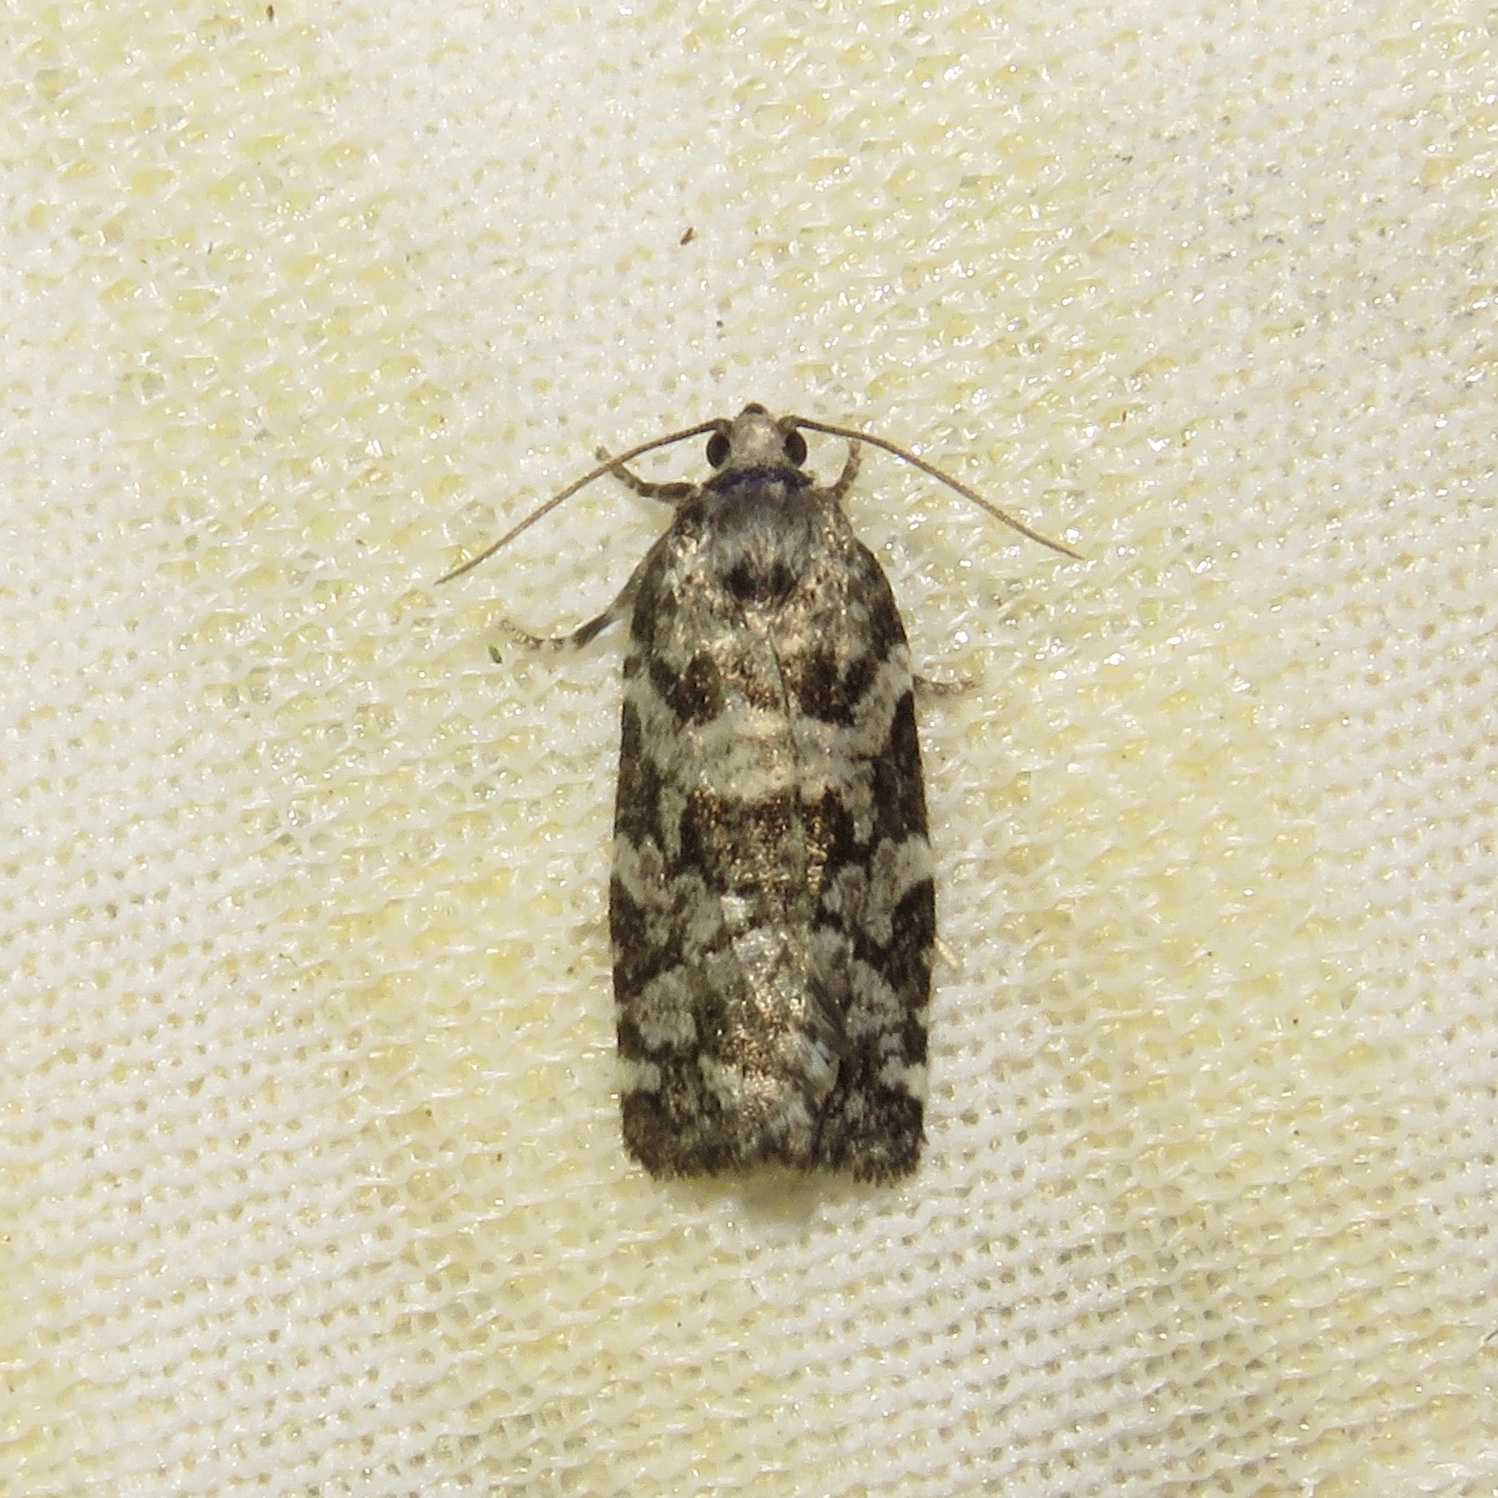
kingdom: Animalia
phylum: Arthropoda
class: Insecta
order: Lepidoptera
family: Tortricidae
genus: Archips
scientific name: Archips packardiana
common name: Spring spruce needle moth
